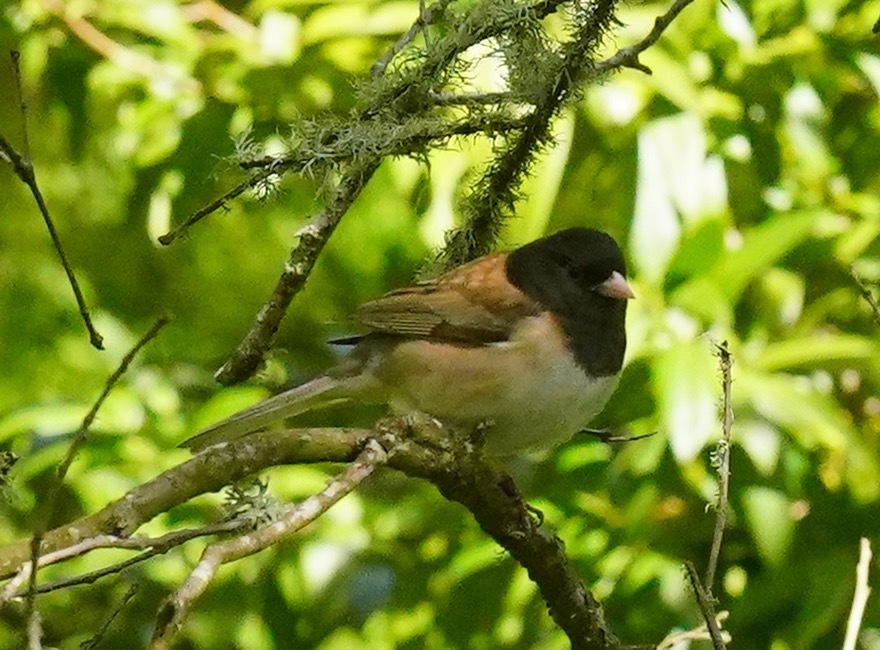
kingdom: Animalia
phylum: Chordata
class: Aves
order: Passeriformes
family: Passerellidae
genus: Junco
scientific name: Junco hyemalis
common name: Dark-eyed junco
